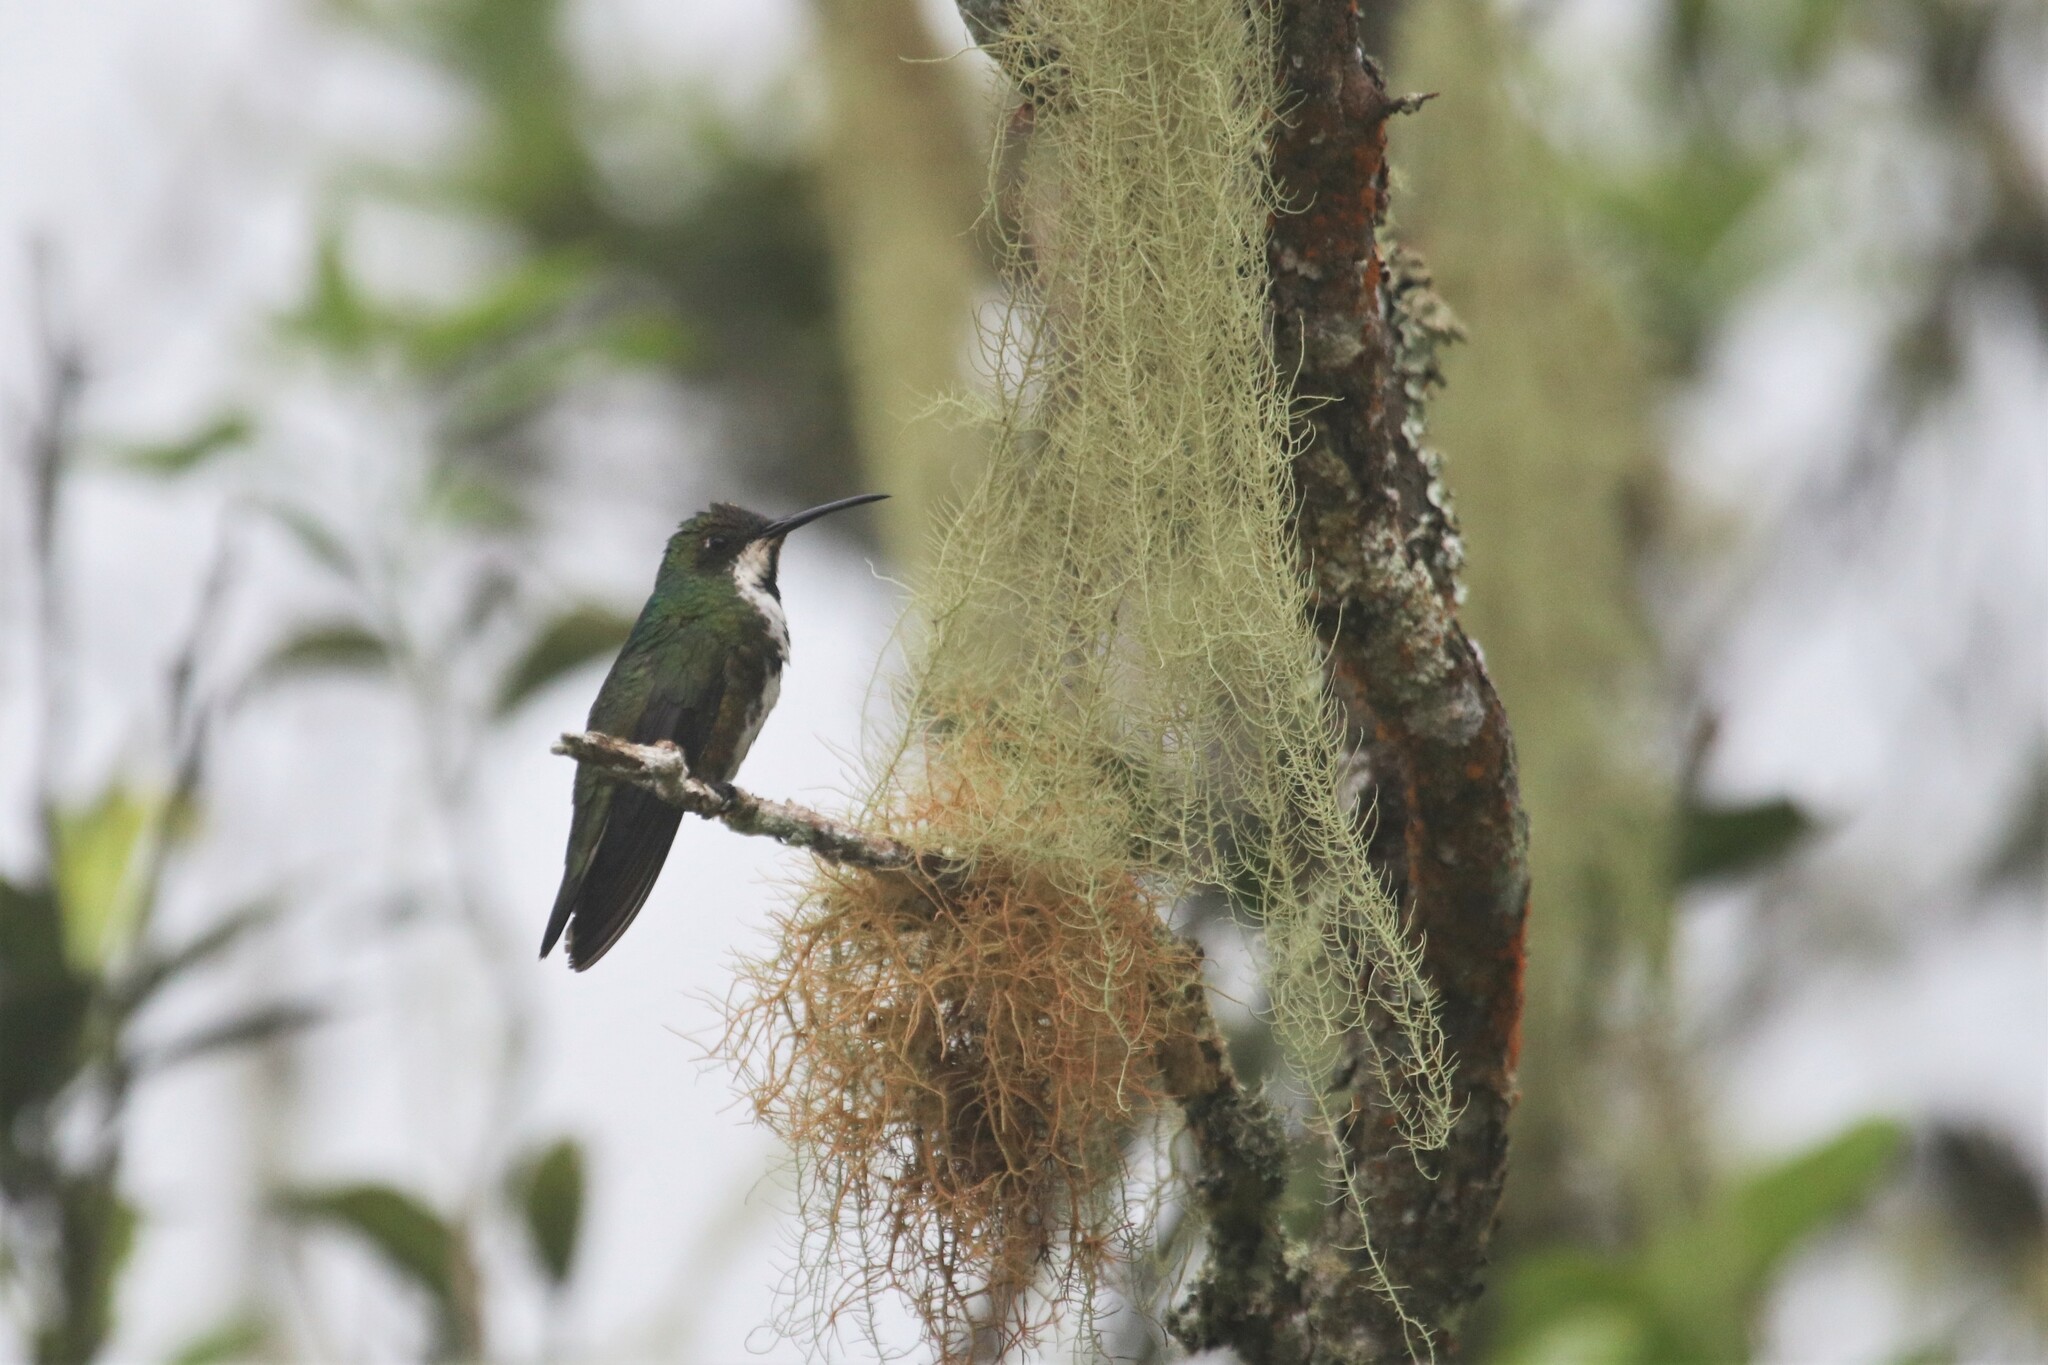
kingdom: Animalia
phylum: Chordata
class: Aves
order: Apodiformes
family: Trochilidae
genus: Anthracothorax
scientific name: Anthracothorax nigricollis
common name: Black-throated mango
